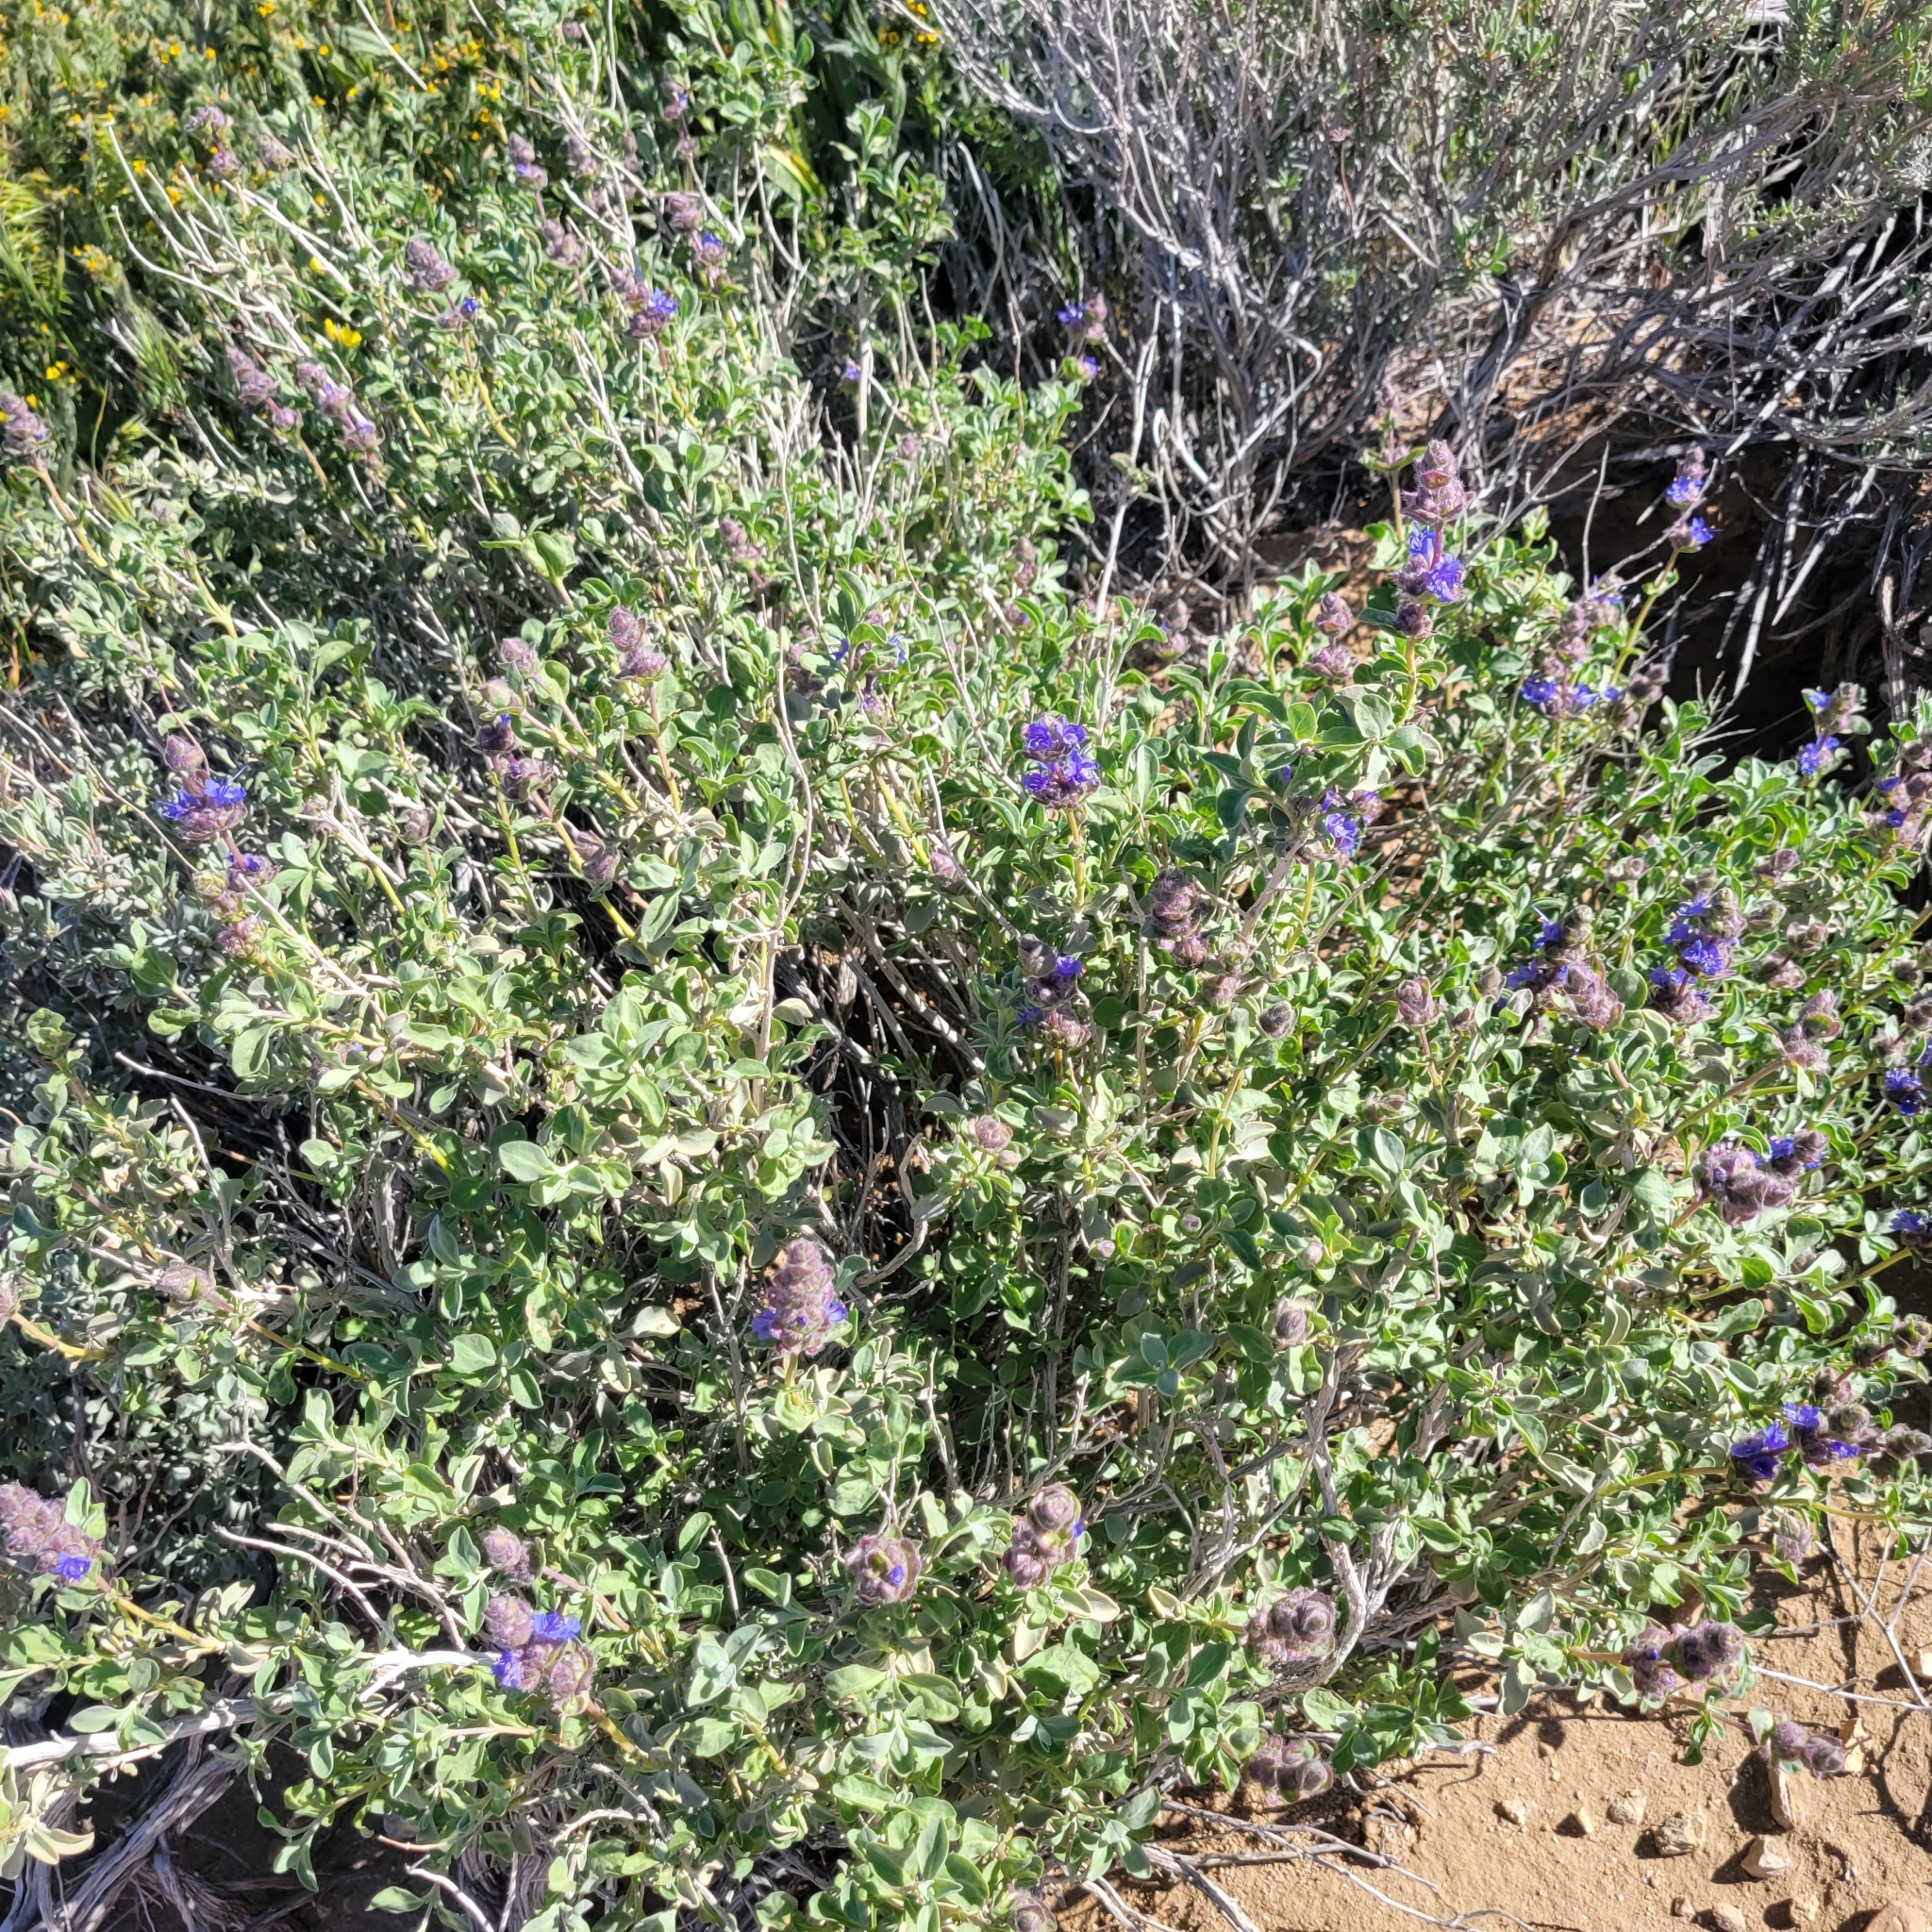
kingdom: Plantae
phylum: Tracheophyta
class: Magnoliopsida
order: Lamiales
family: Lamiaceae
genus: Salvia
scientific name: Salvia dorrii
